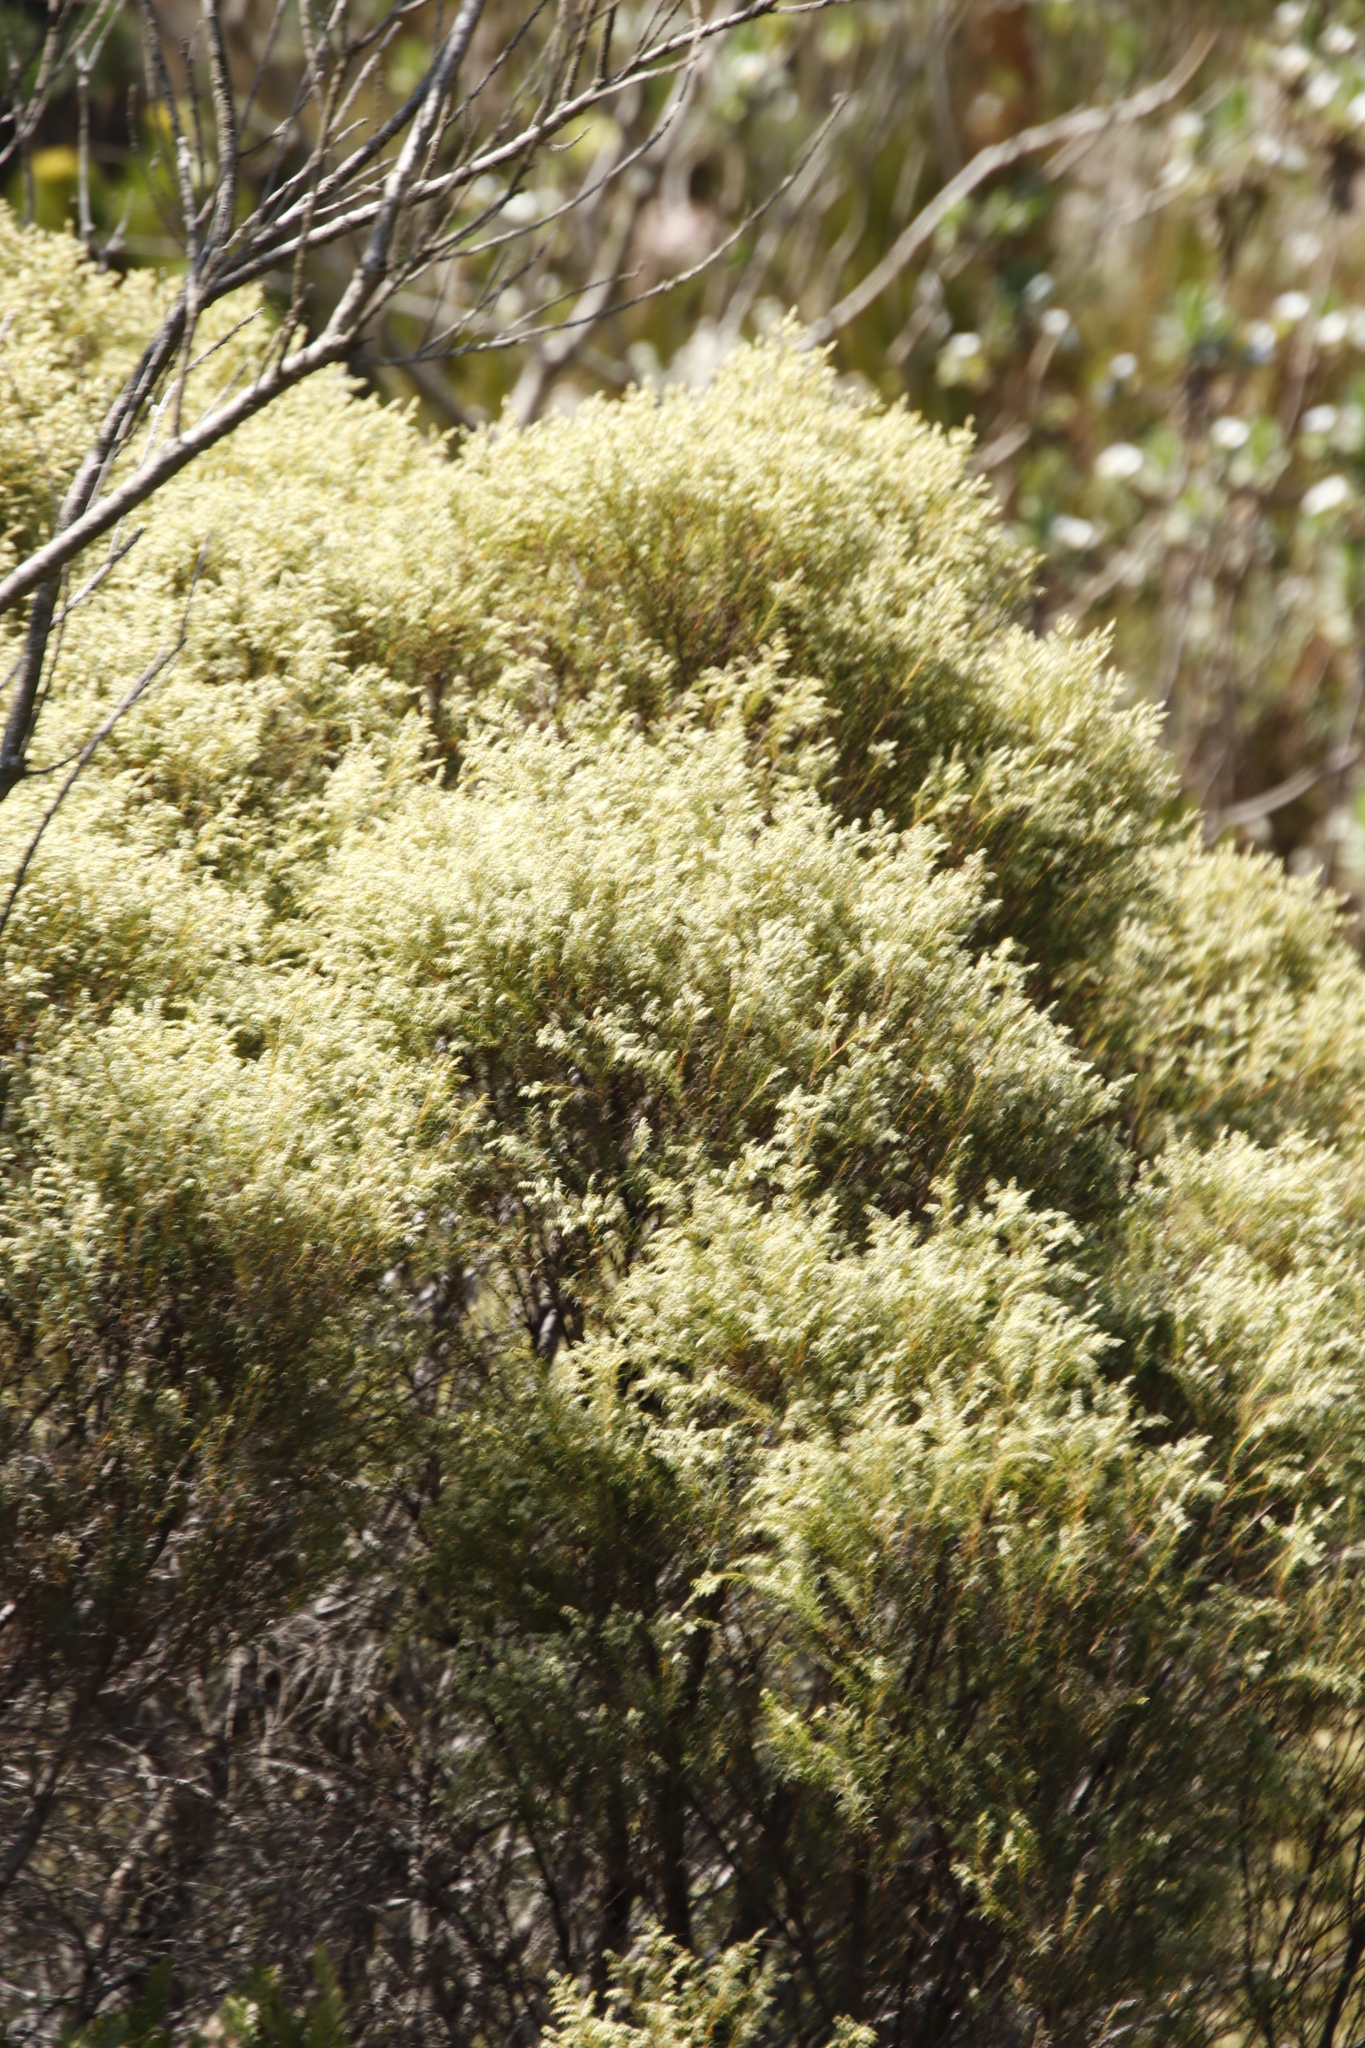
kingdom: Plantae
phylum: Tracheophyta
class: Magnoliopsida
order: Bruniales
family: Bruniaceae
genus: Brunia
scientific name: Brunia africana
